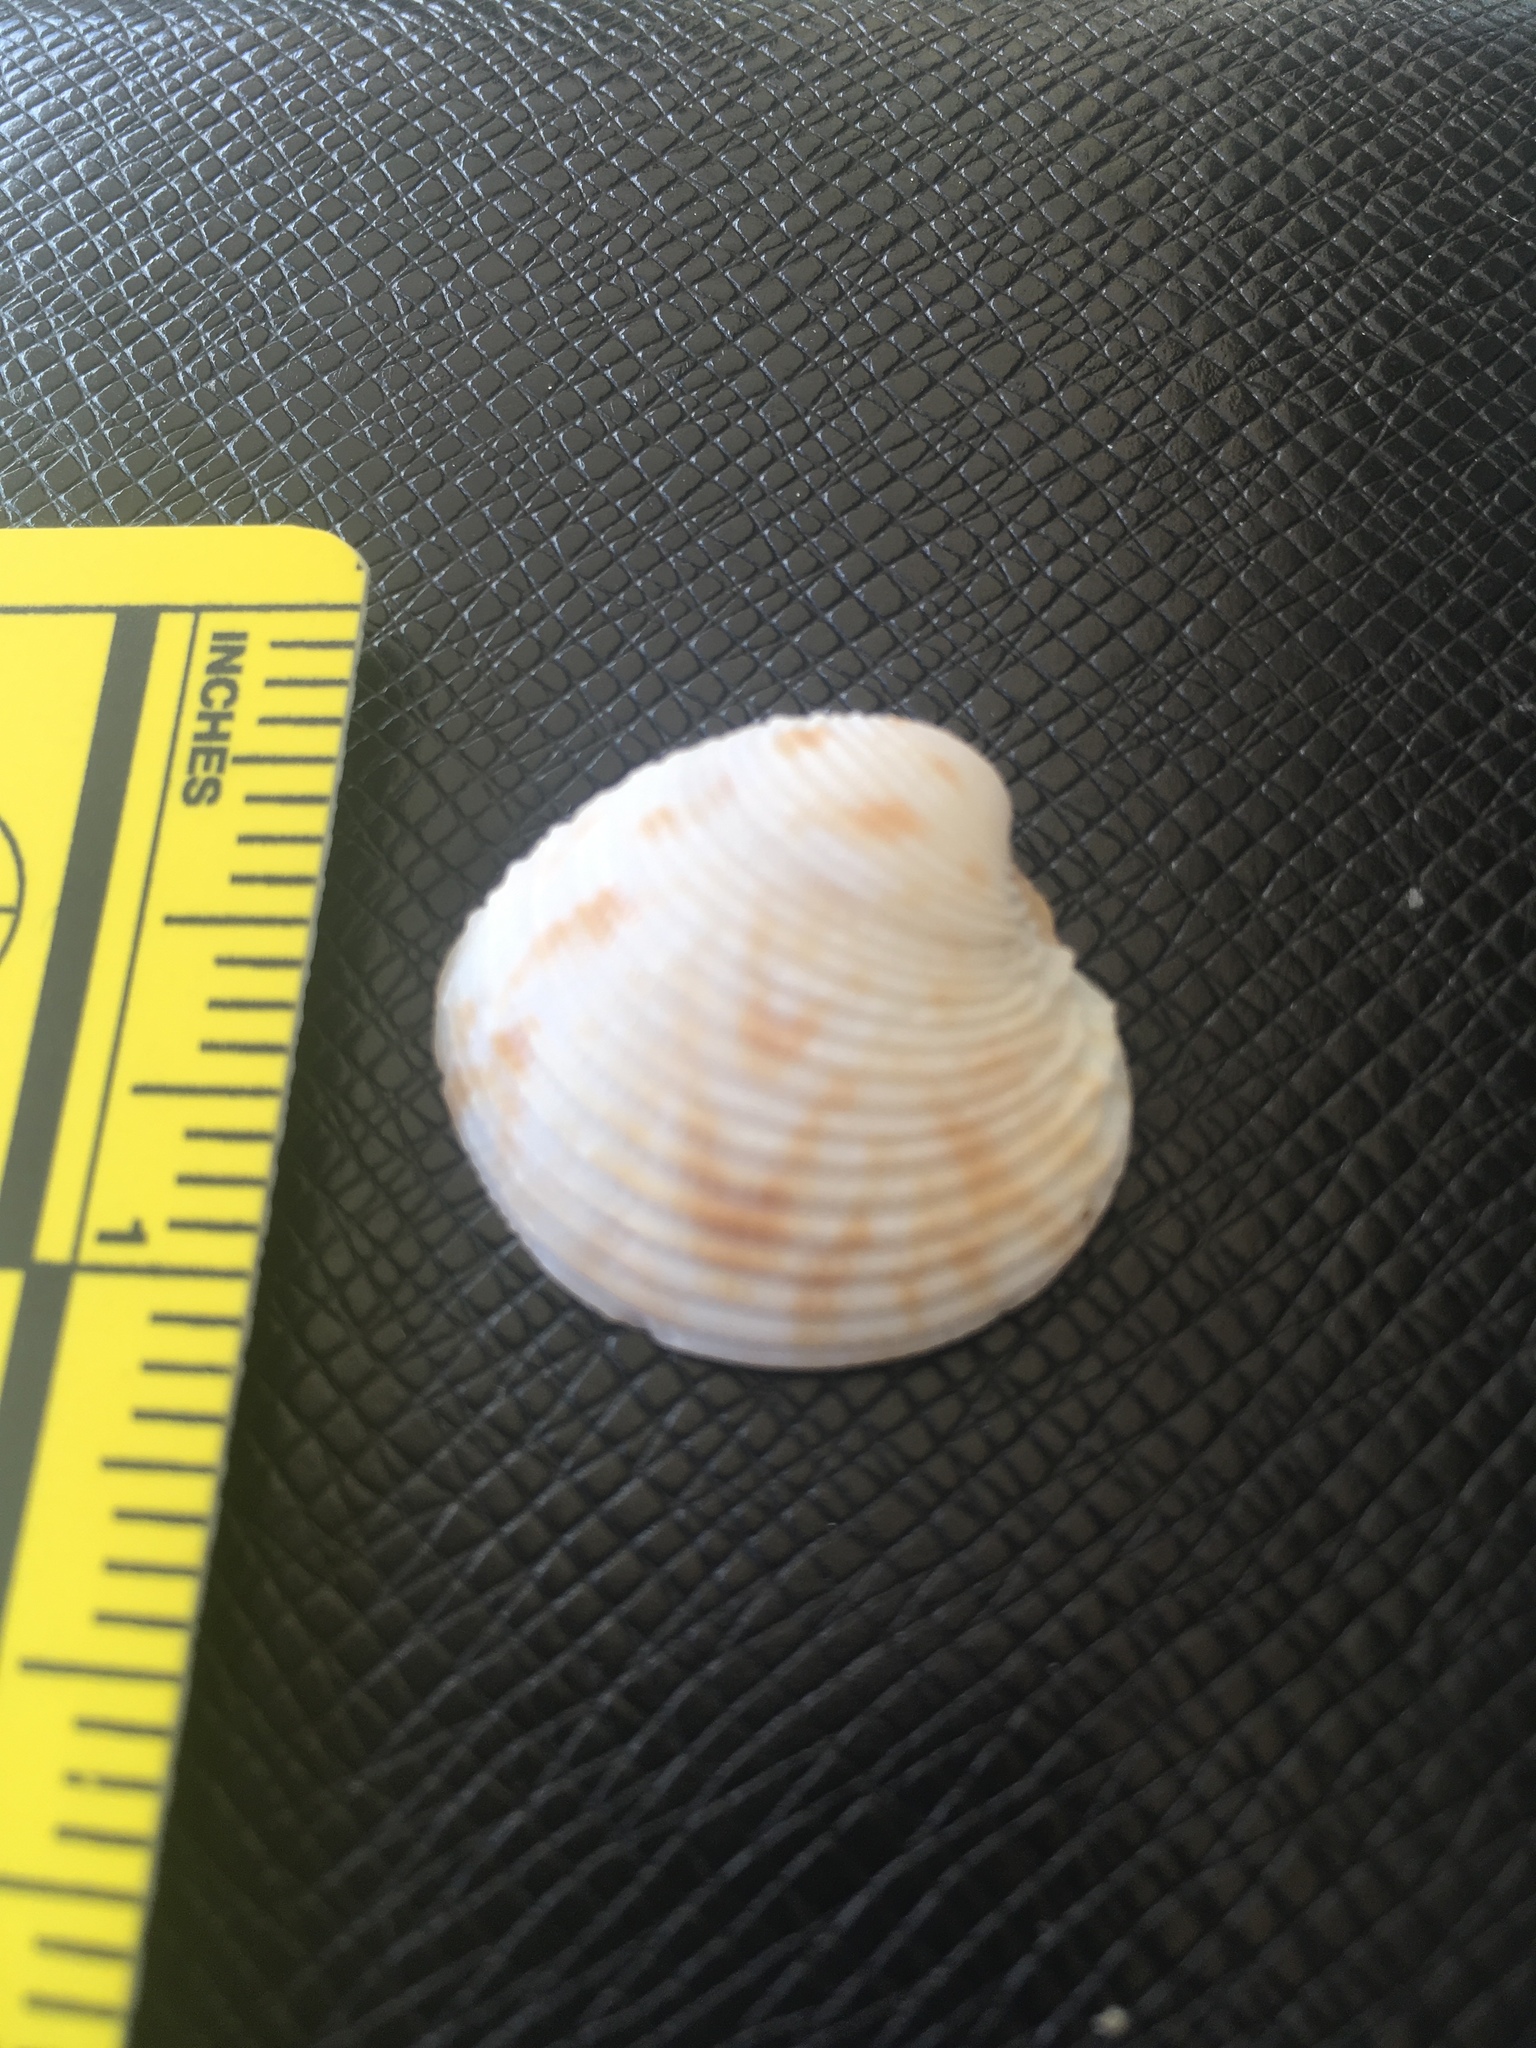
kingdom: Animalia
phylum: Mollusca
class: Bivalvia
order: Venerida
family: Veneridae
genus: Chionopsis
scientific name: Chionopsis intapurpurea
